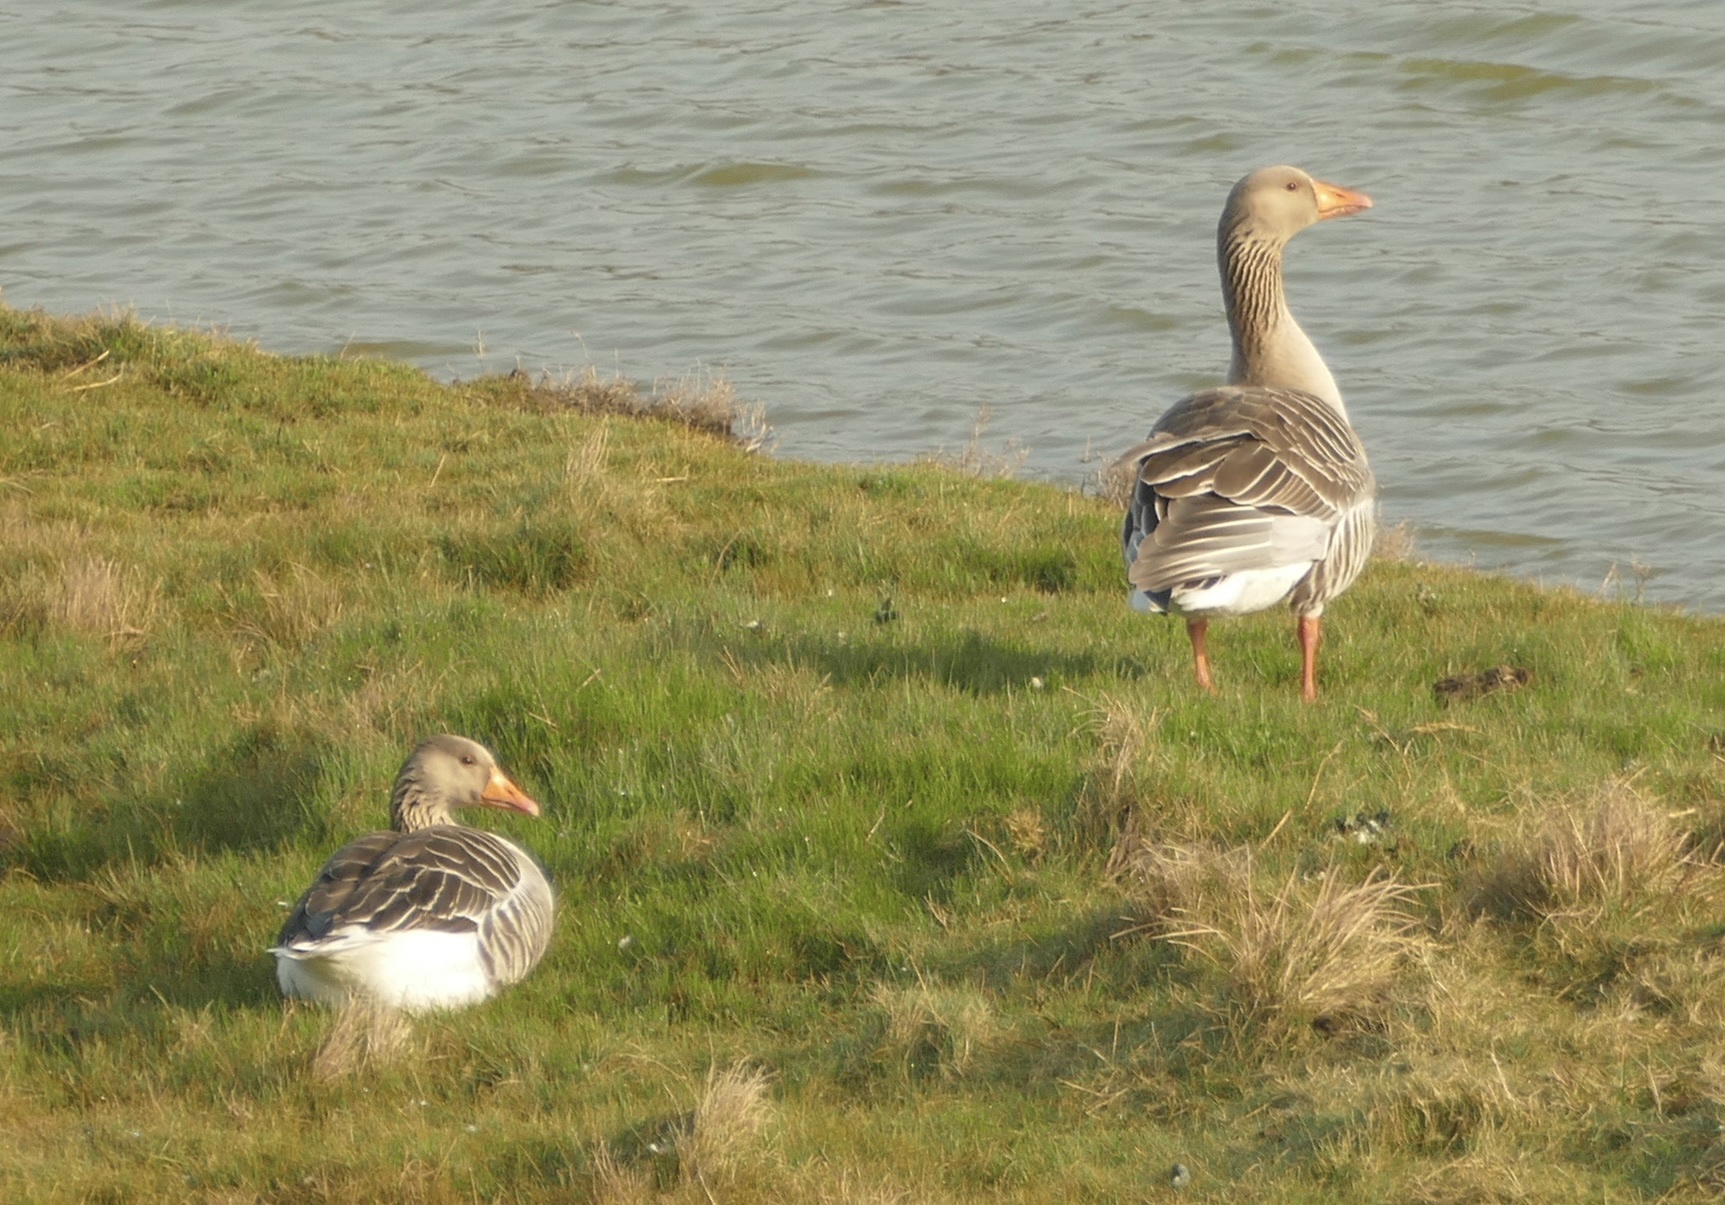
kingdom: Animalia
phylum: Chordata
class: Aves
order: Anseriformes
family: Anatidae
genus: Anser
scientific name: Anser anser
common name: Greylag goose
